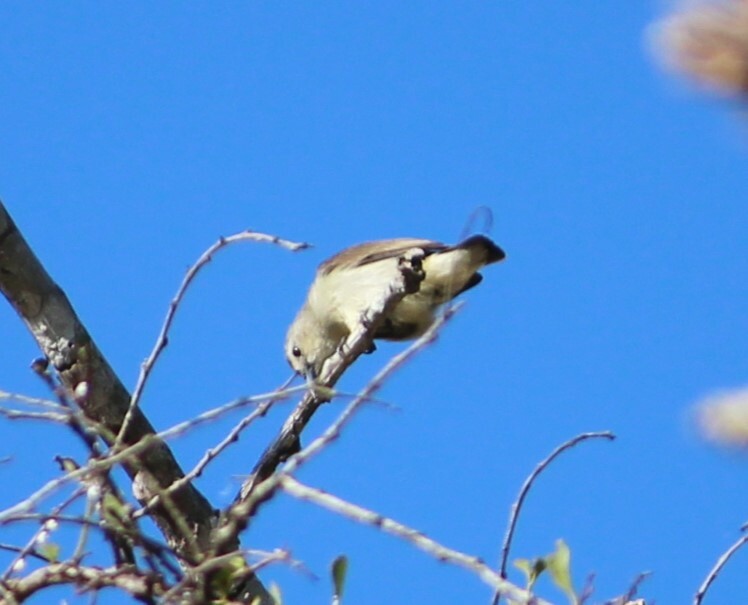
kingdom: Animalia
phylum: Chordata
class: Aves
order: Passeriformes
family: Dicaeidae
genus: Dicaeum
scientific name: Dicaeum concolor
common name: Nilgiri flowerpecker
